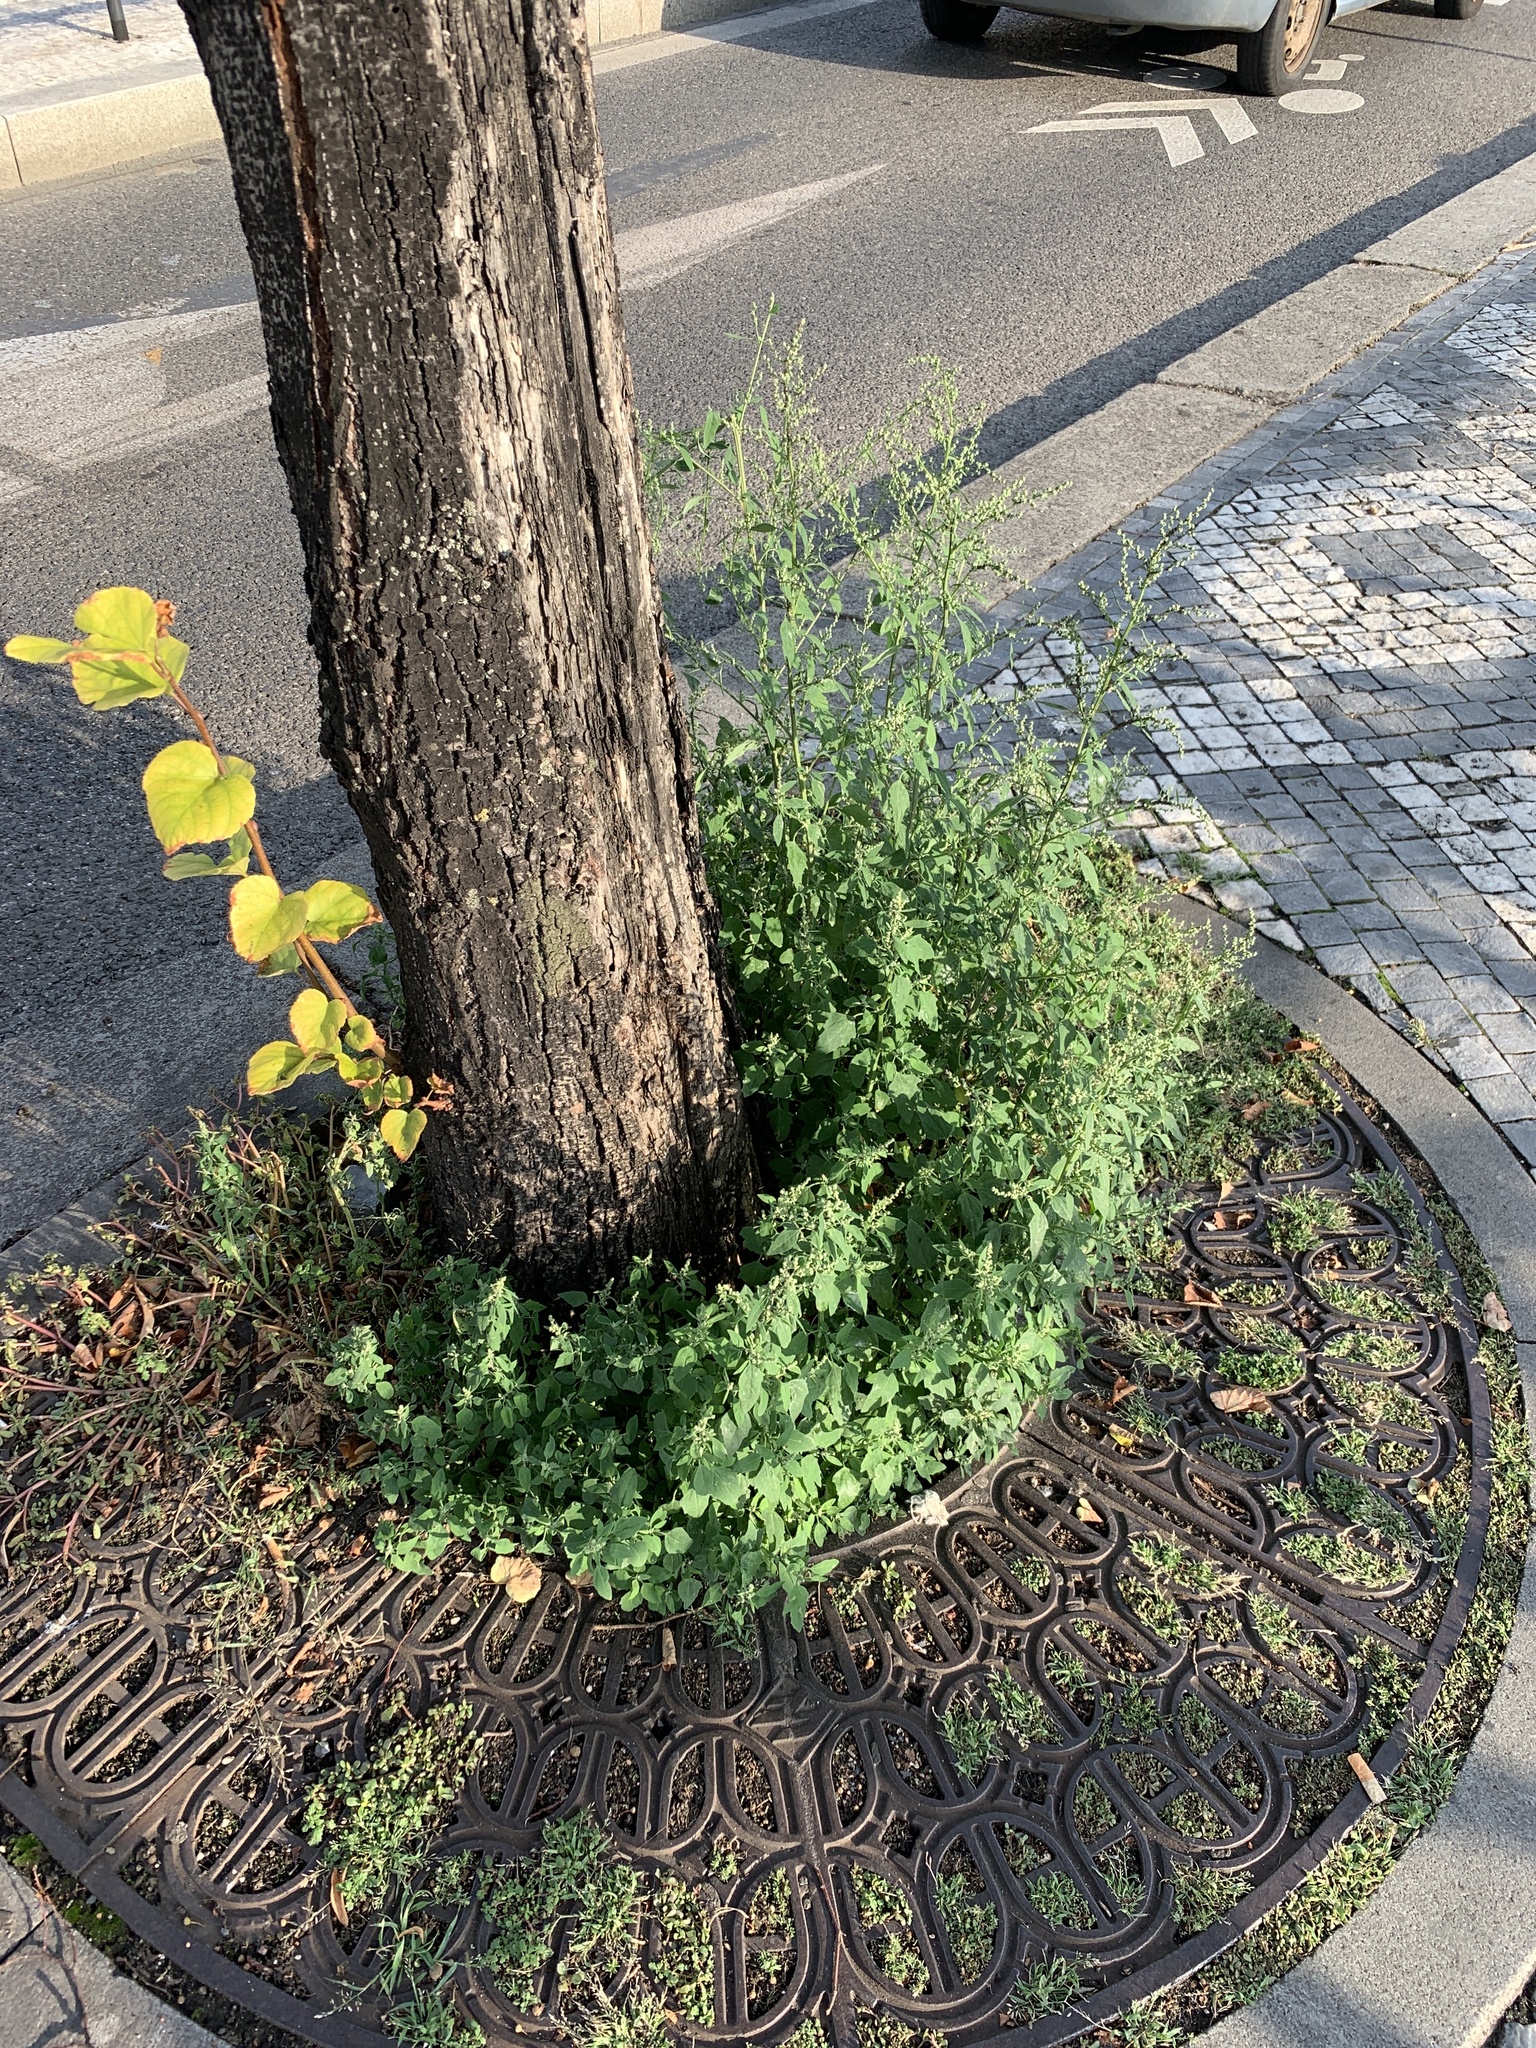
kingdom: Plantae
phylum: Tracheophyta
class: Magnoliopsida
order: Caryophyllales
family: Amaranthaceae
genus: Chenopodium
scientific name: Chenopodium album
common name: Fat-hen
